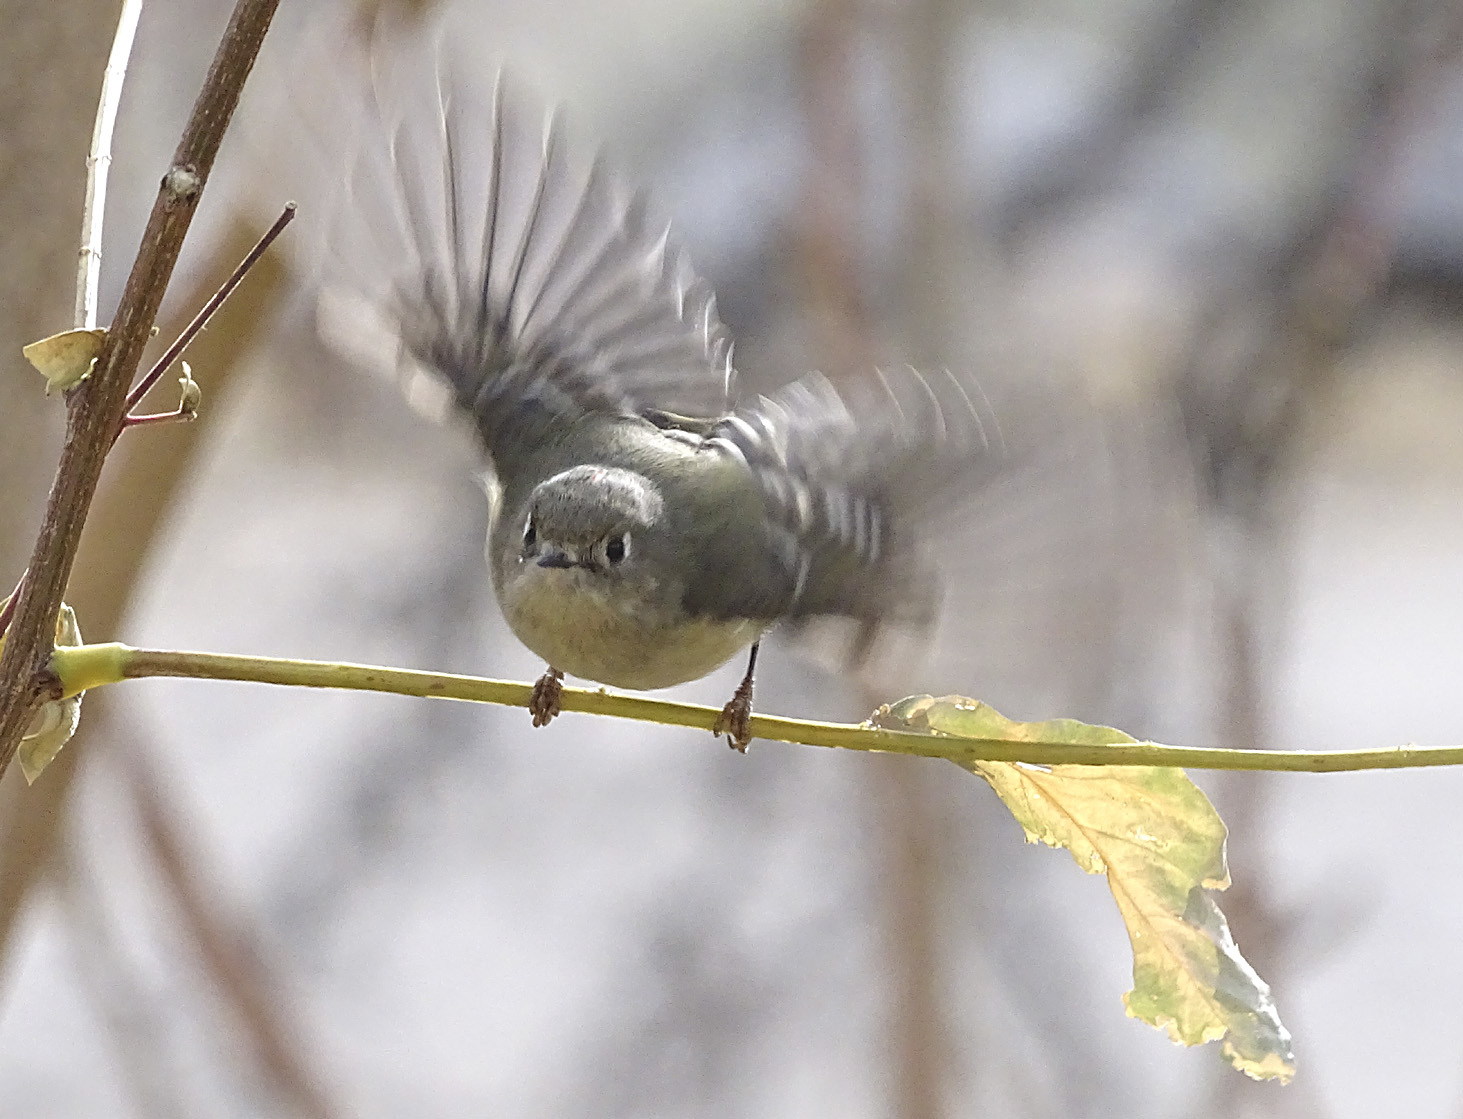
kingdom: Animalia
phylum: Chordata
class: Aves
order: Passeriformes
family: Regulidae
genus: Regulus
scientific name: Regulus calendula
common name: Ruby-crowned kinglet
